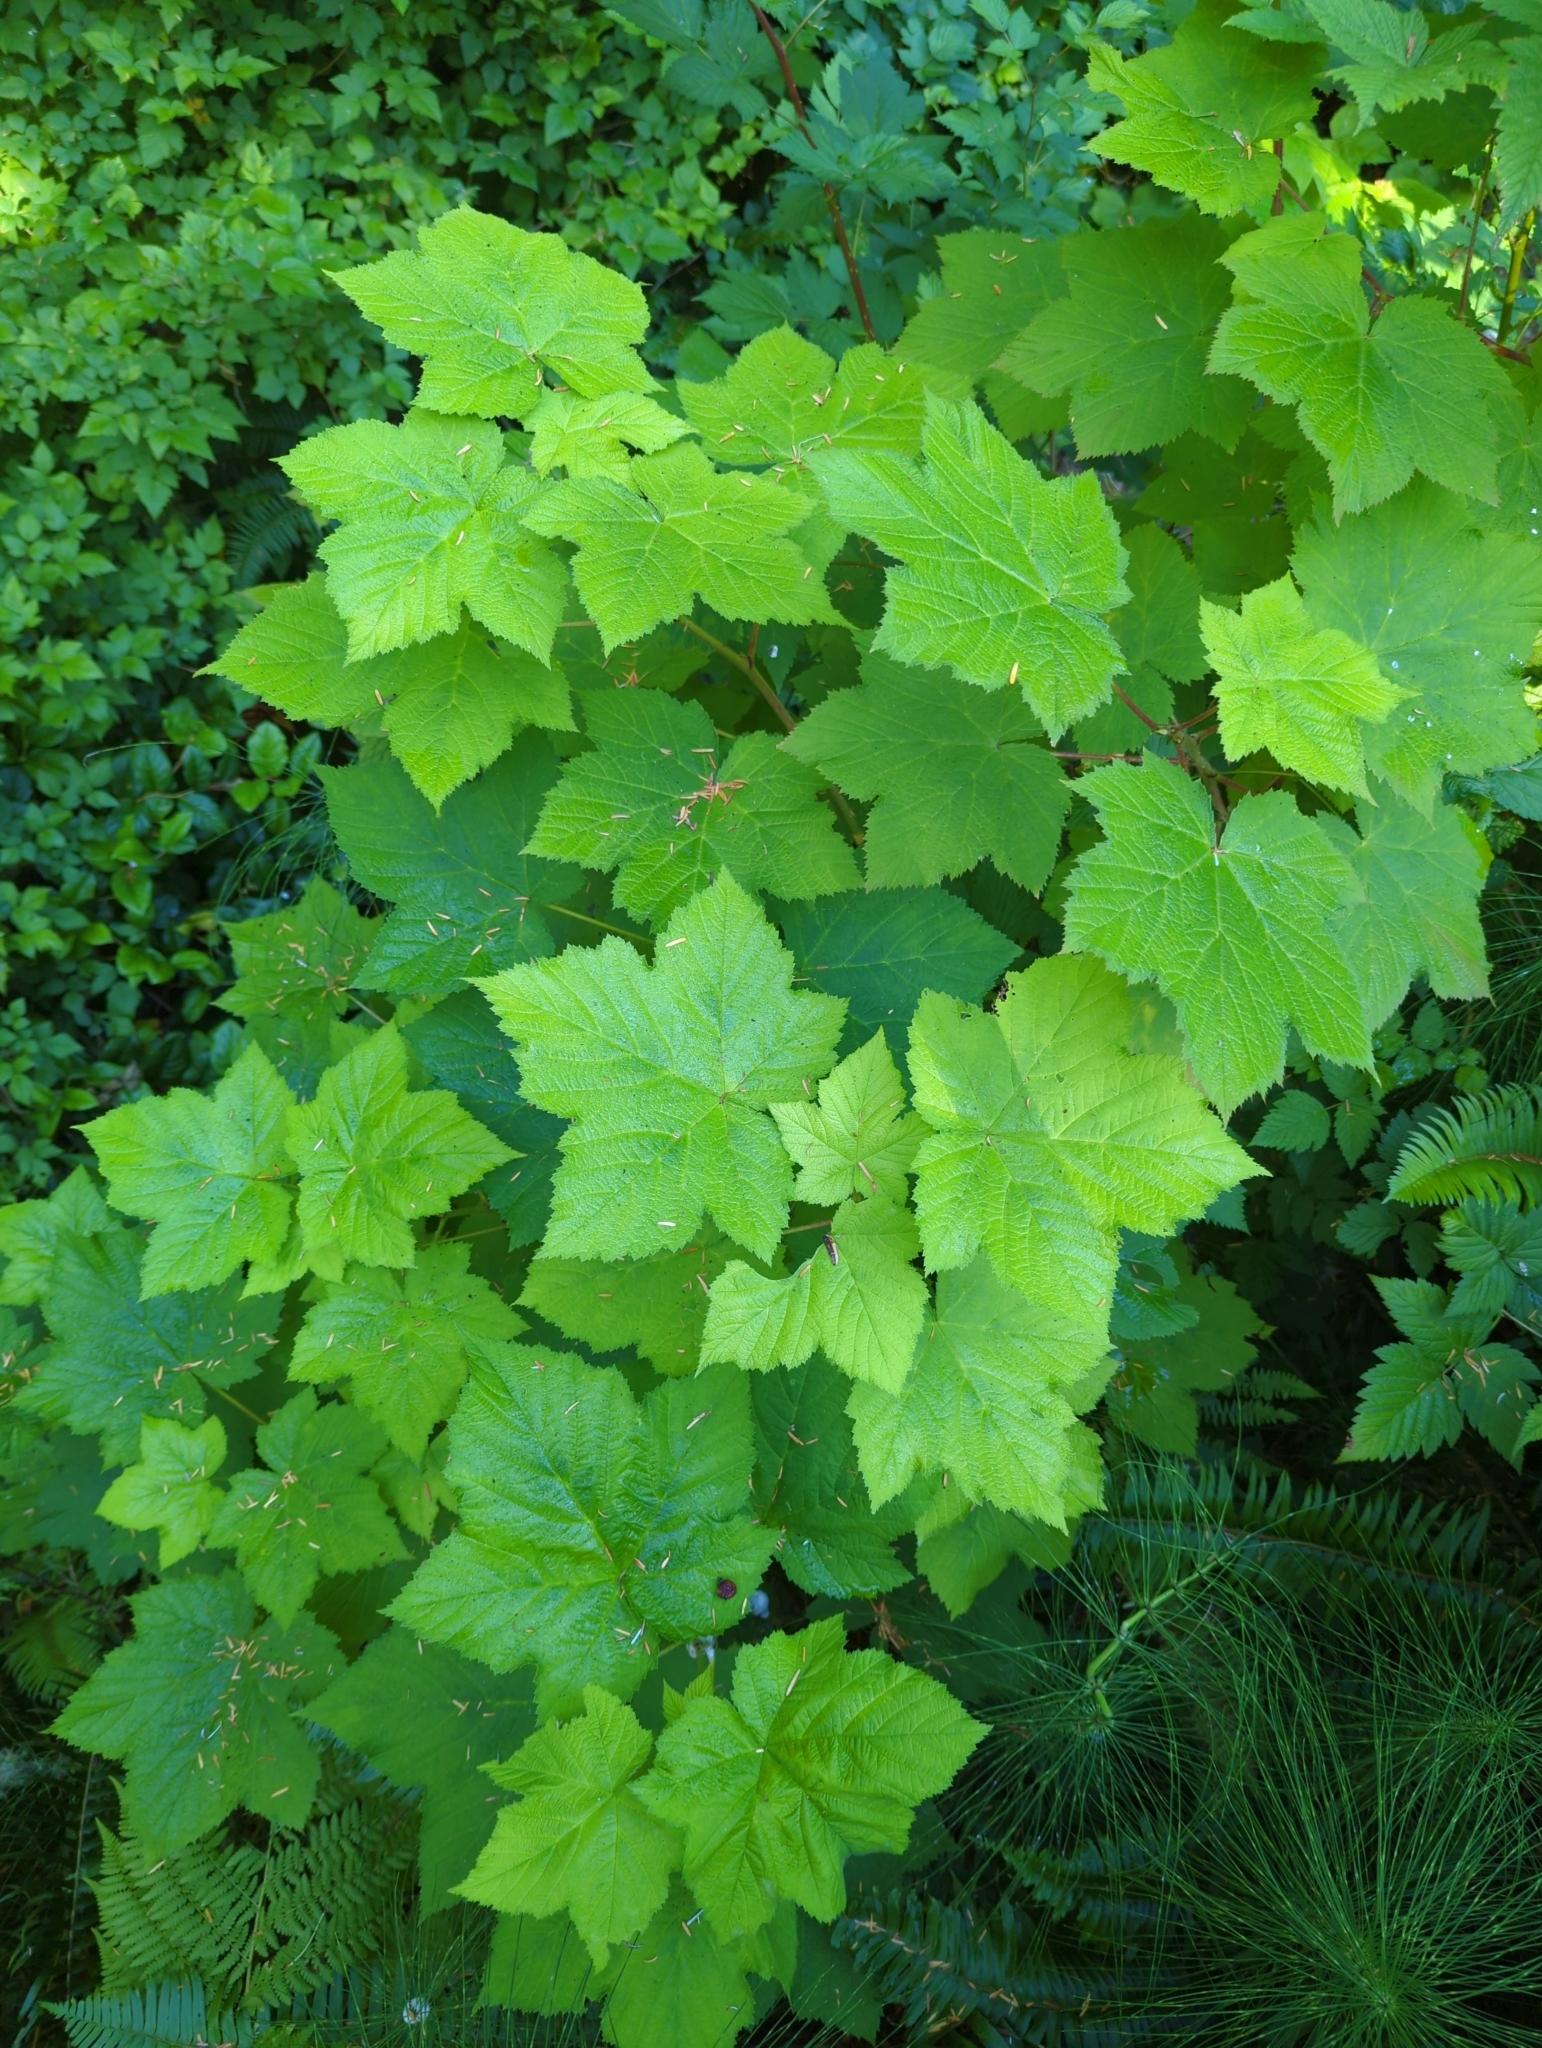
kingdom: Plantae
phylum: Tracheophyta
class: Magnoliopsida
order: Rosales
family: Rosaceae
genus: Rubus
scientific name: Rubus parviflorus
